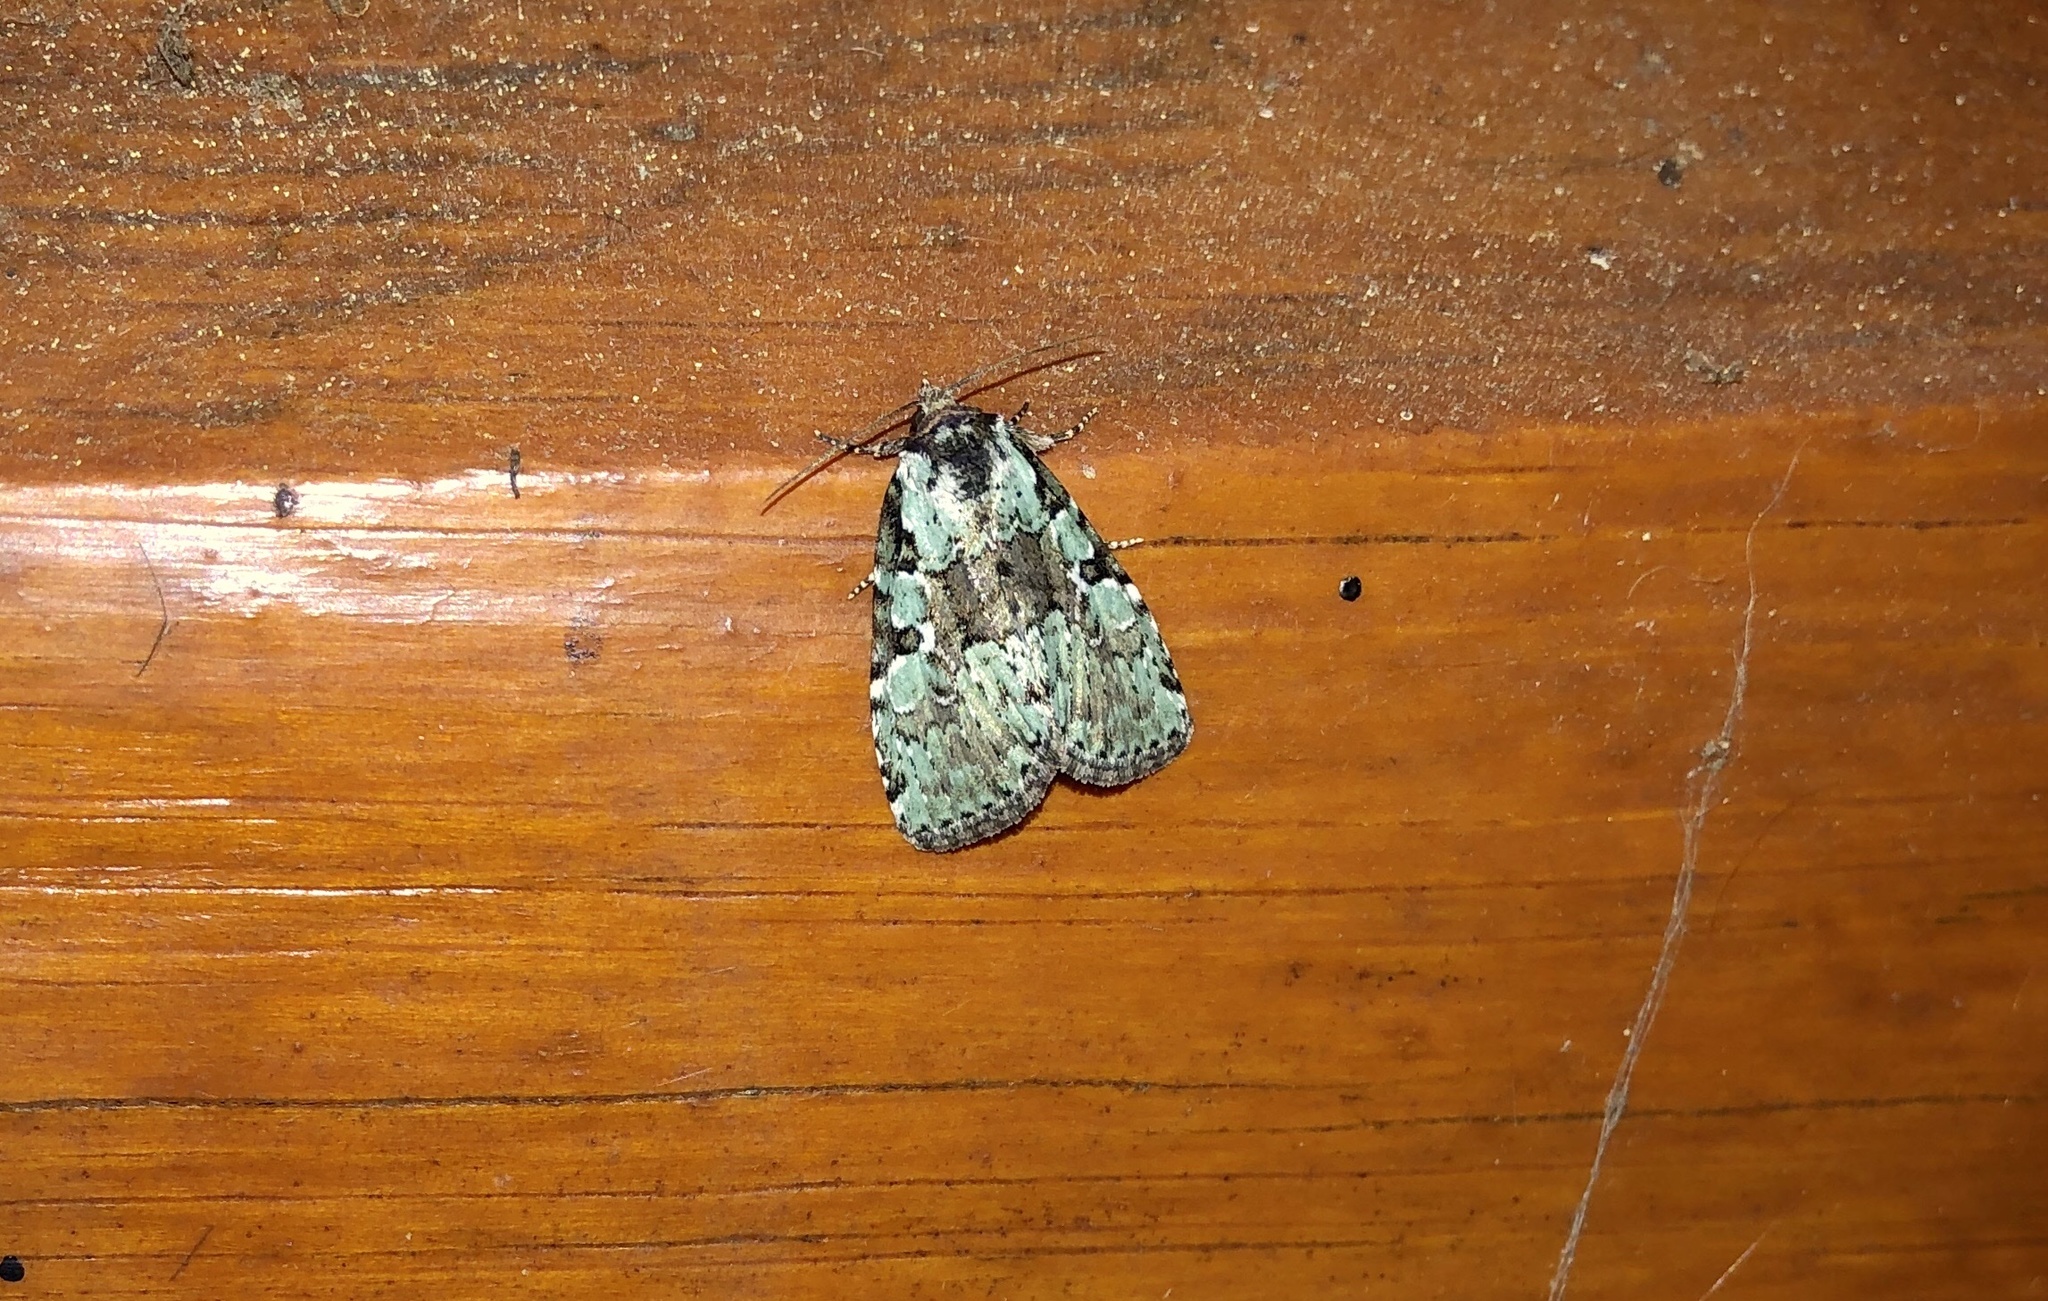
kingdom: Animalia
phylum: Arthropoda
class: Insecta
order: Lepidoptera
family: Noctuidae
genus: Leuconycta
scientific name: Leuconycta lepidula
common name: Marbled-green leuconycta moth
